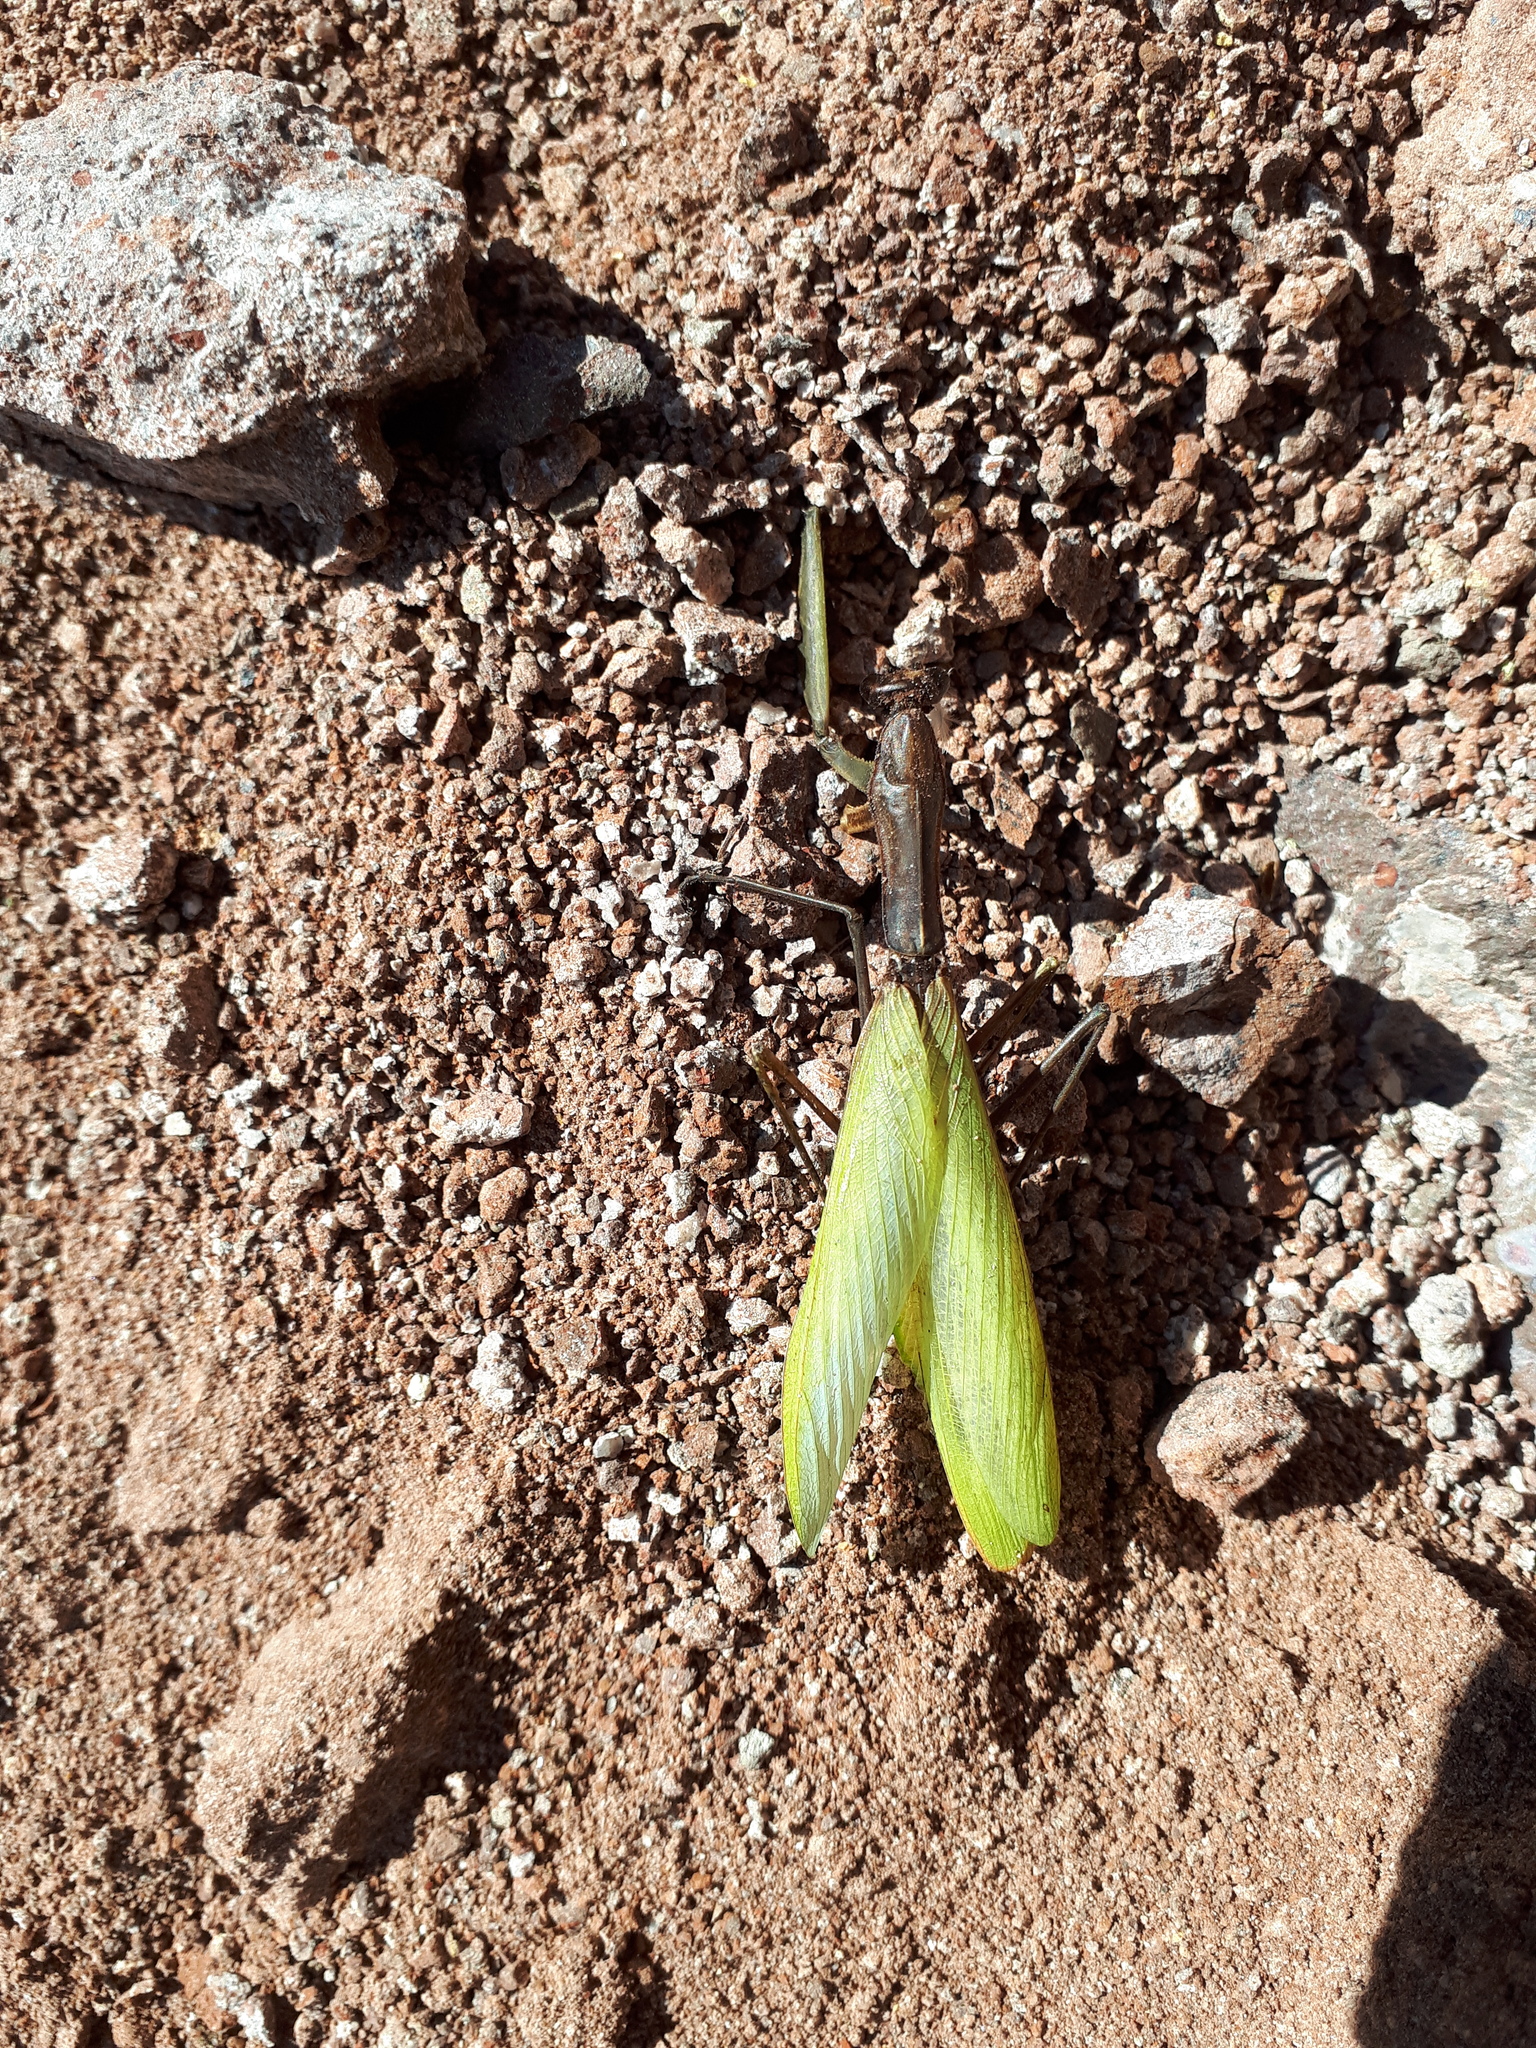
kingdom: Animalia
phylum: Arthropoda
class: Insecta
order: Mantodea
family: Mantidae
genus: Mantis
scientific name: Mantis religiosa
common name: Praying mantis
